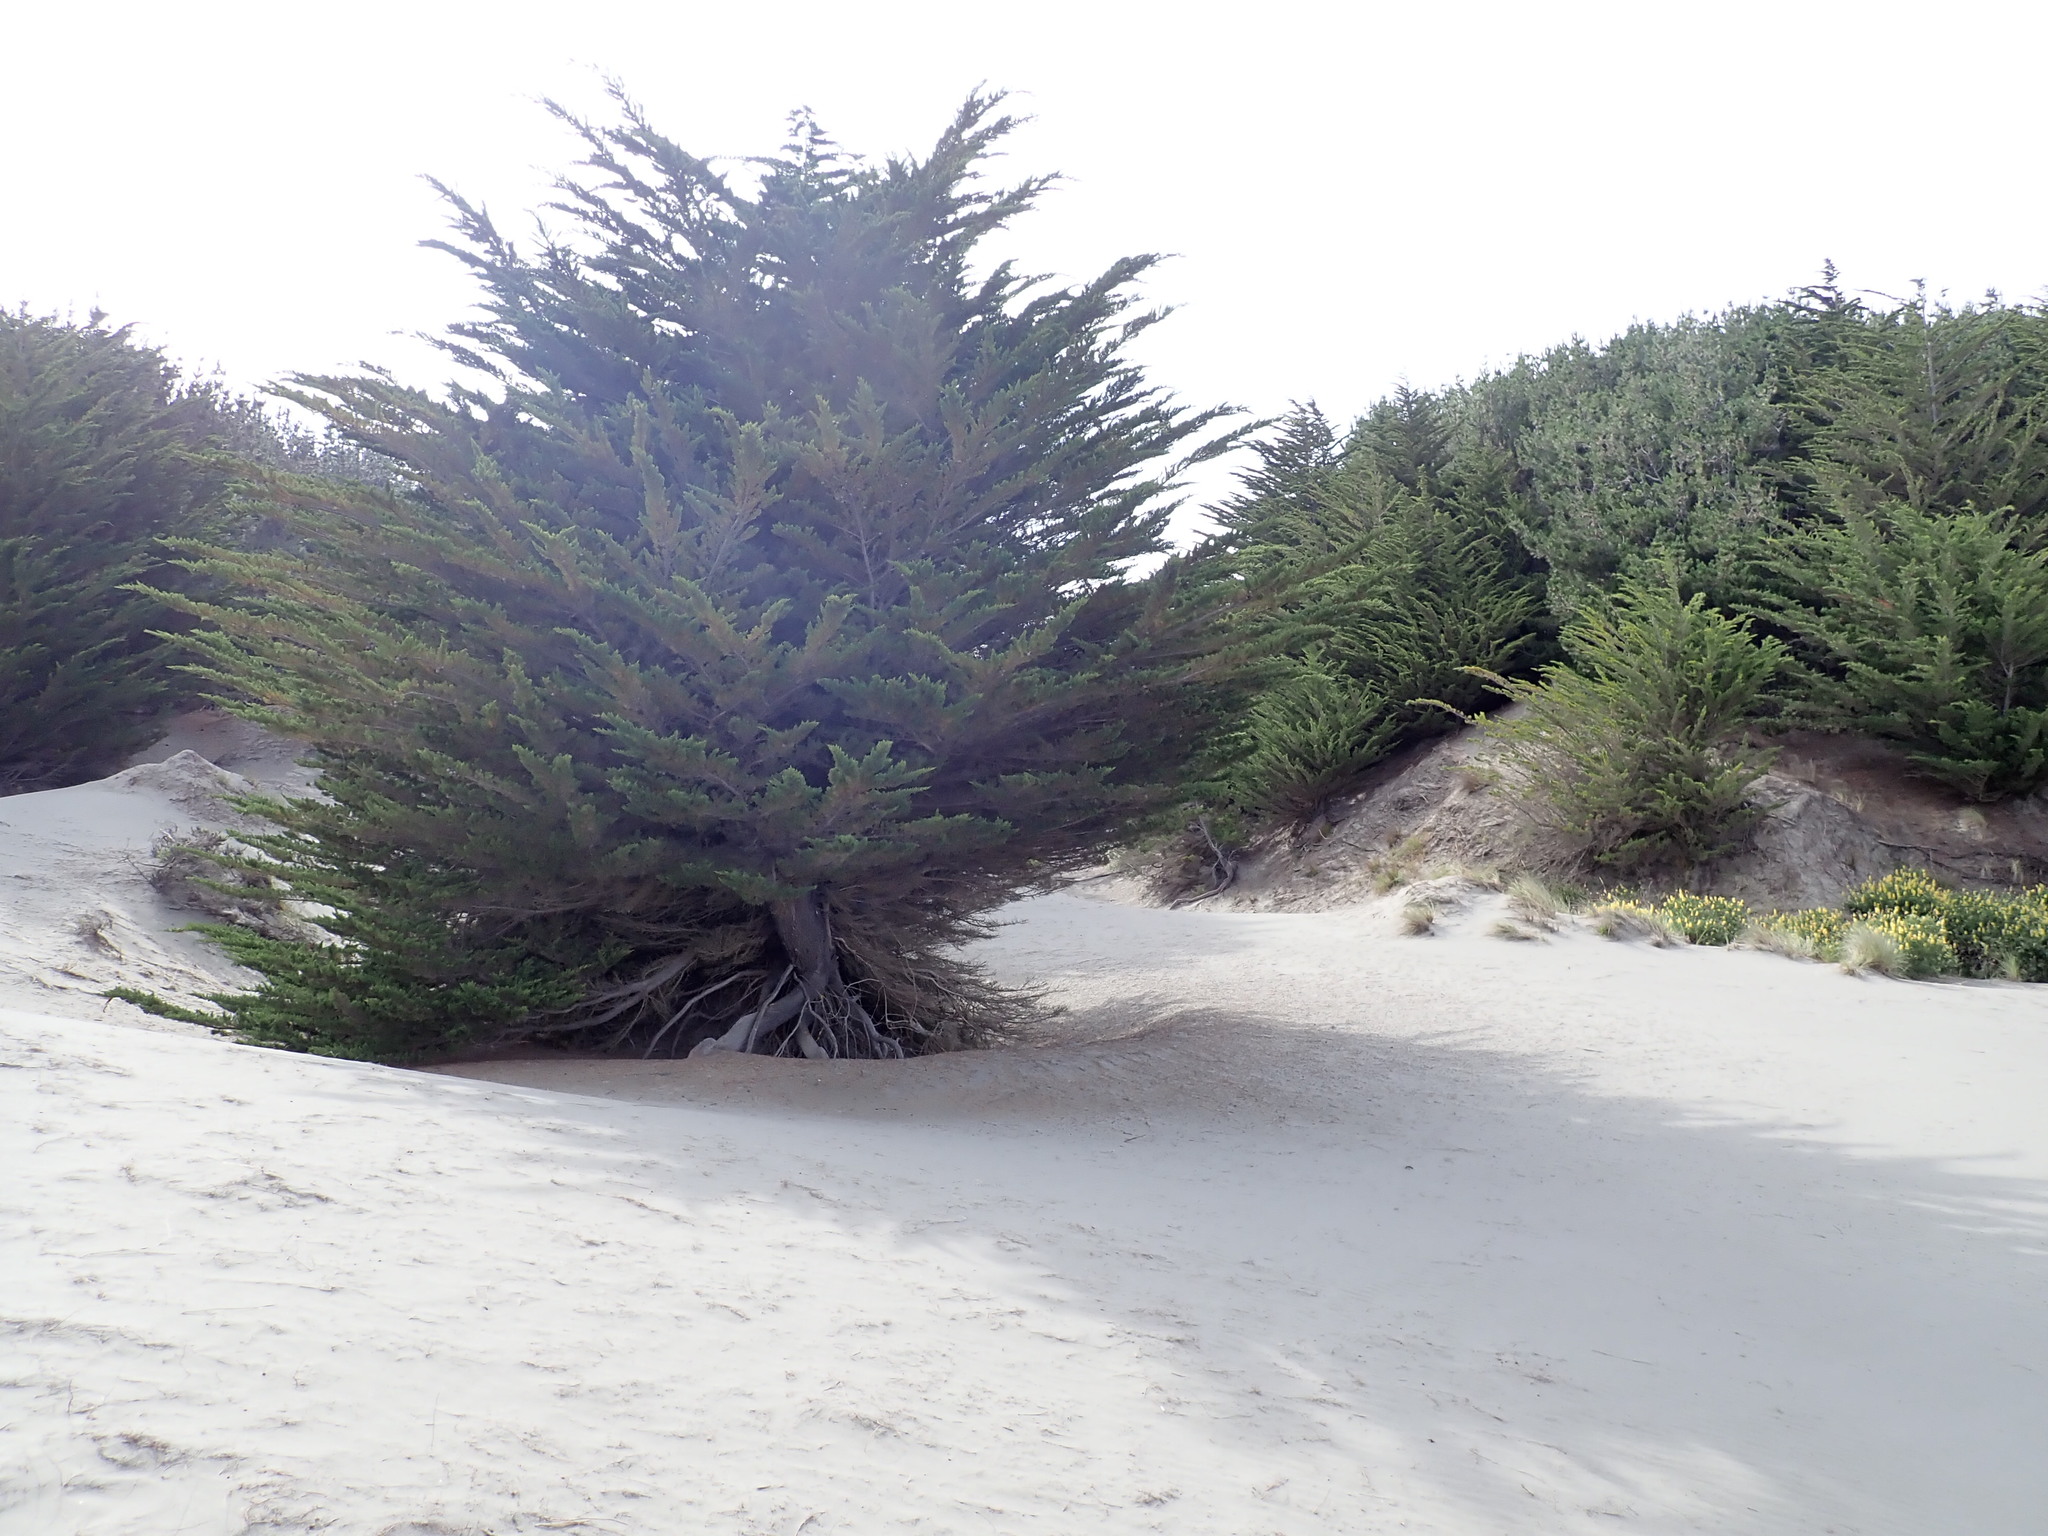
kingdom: Plantae
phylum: Tracheophyta
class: Pinopsida
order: Pinales
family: Cupressaceae
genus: Cupressus
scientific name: Cupressus macrocarpa
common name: Monterey cypress
